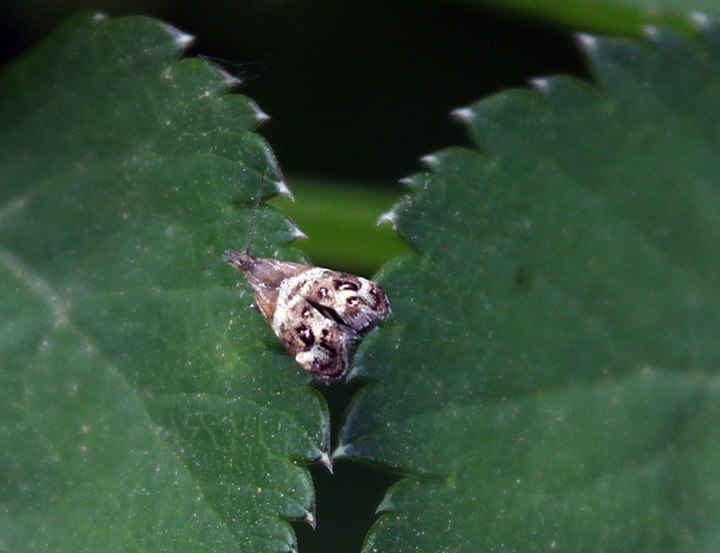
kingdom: Animalia
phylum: Arthropoda
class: Insecta
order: Lepidoptera
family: Choreutidae
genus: Tebenna
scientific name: Tebenna micalis
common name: Vagrant twitcher
